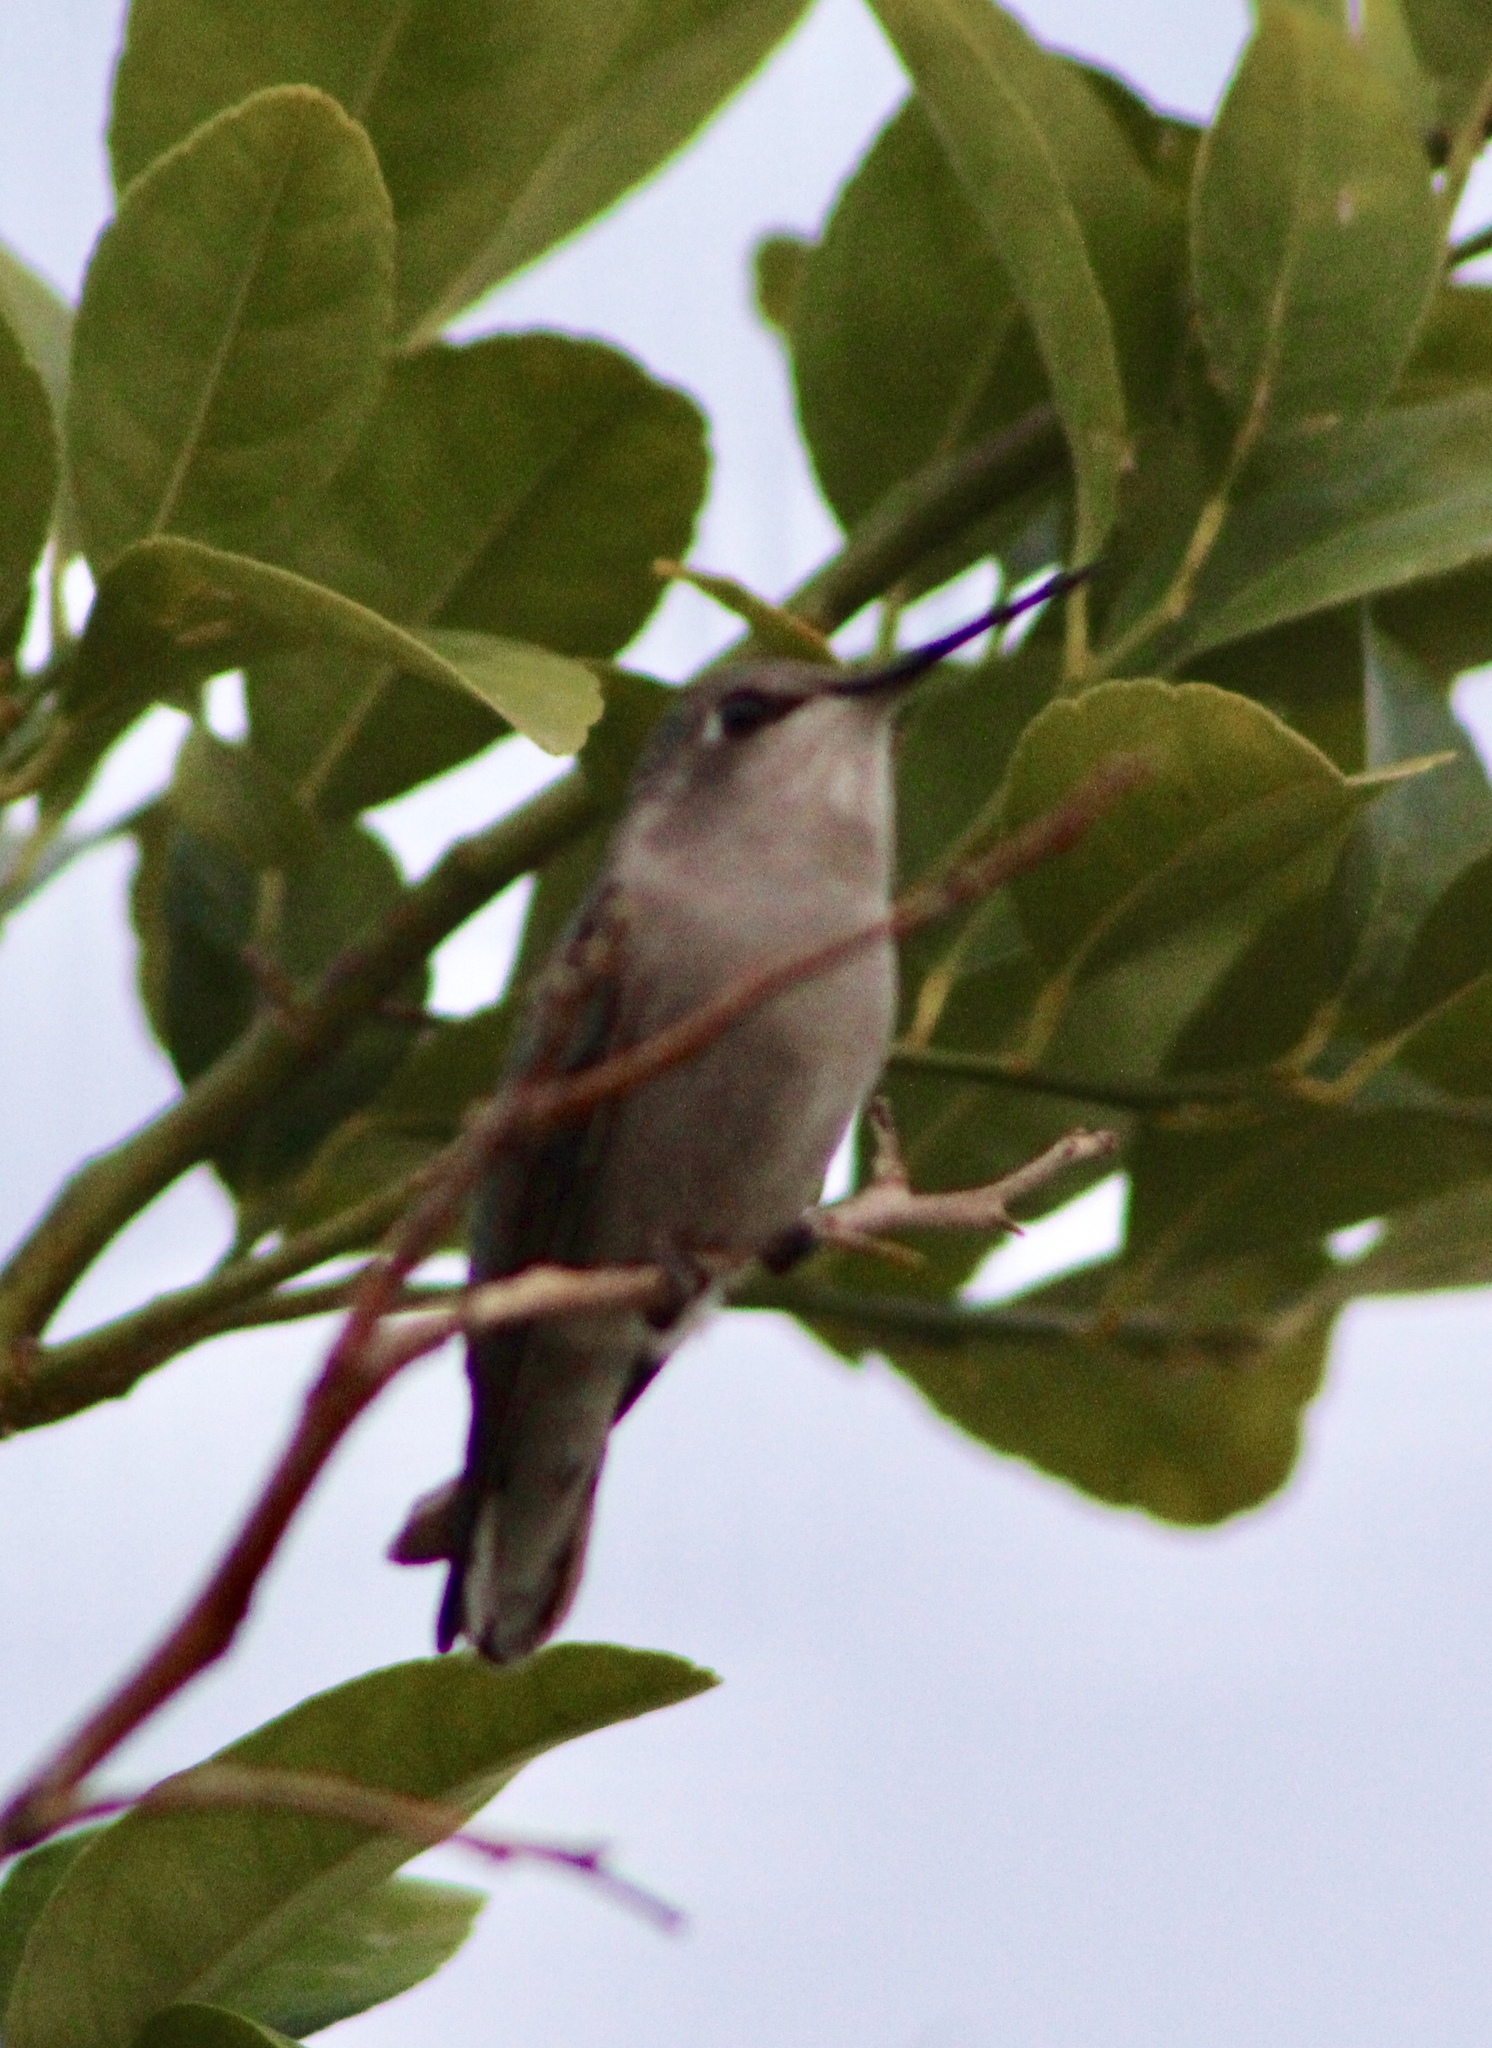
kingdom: Animalia
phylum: Chordata
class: Aves
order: Apodiformes
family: Trochilidae
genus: Calypte
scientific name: Calypte costae
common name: Costa's hummingbird
